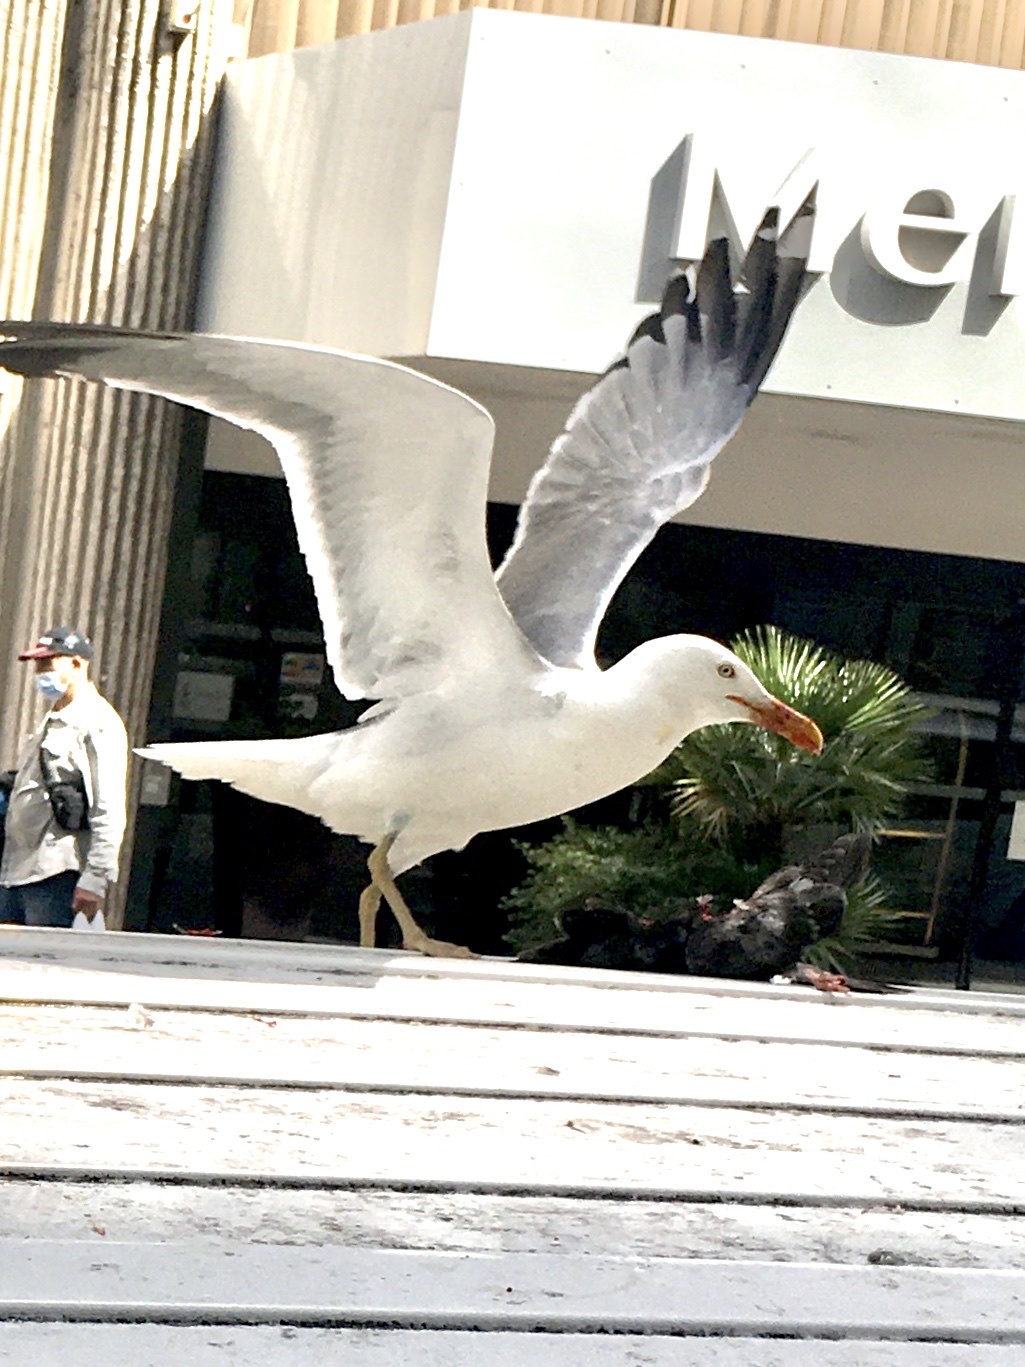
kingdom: Animalia
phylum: Chordata
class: Aves
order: Charadriiformes
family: Laridae
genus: Larus
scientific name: Larus michahellis
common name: Yellow-legged gull
